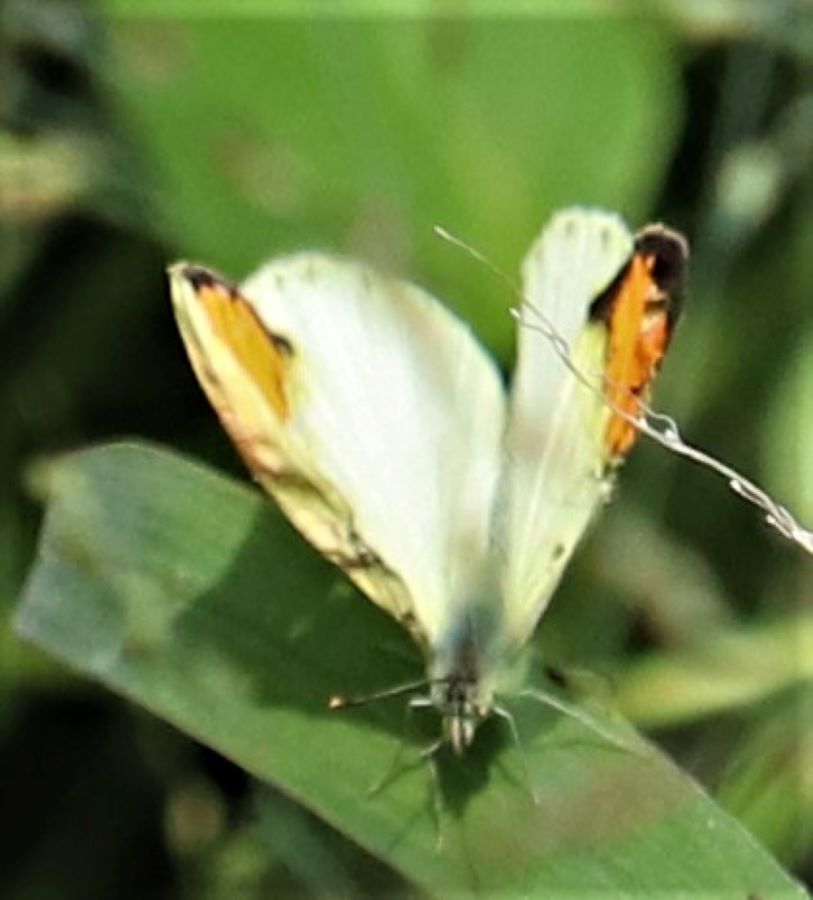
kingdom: Animalia
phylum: Arthropoda
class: Insecta
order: Lepidoptera
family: Pieridae
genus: Colotis
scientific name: Colotis auxo
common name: Sulphur orange tip
